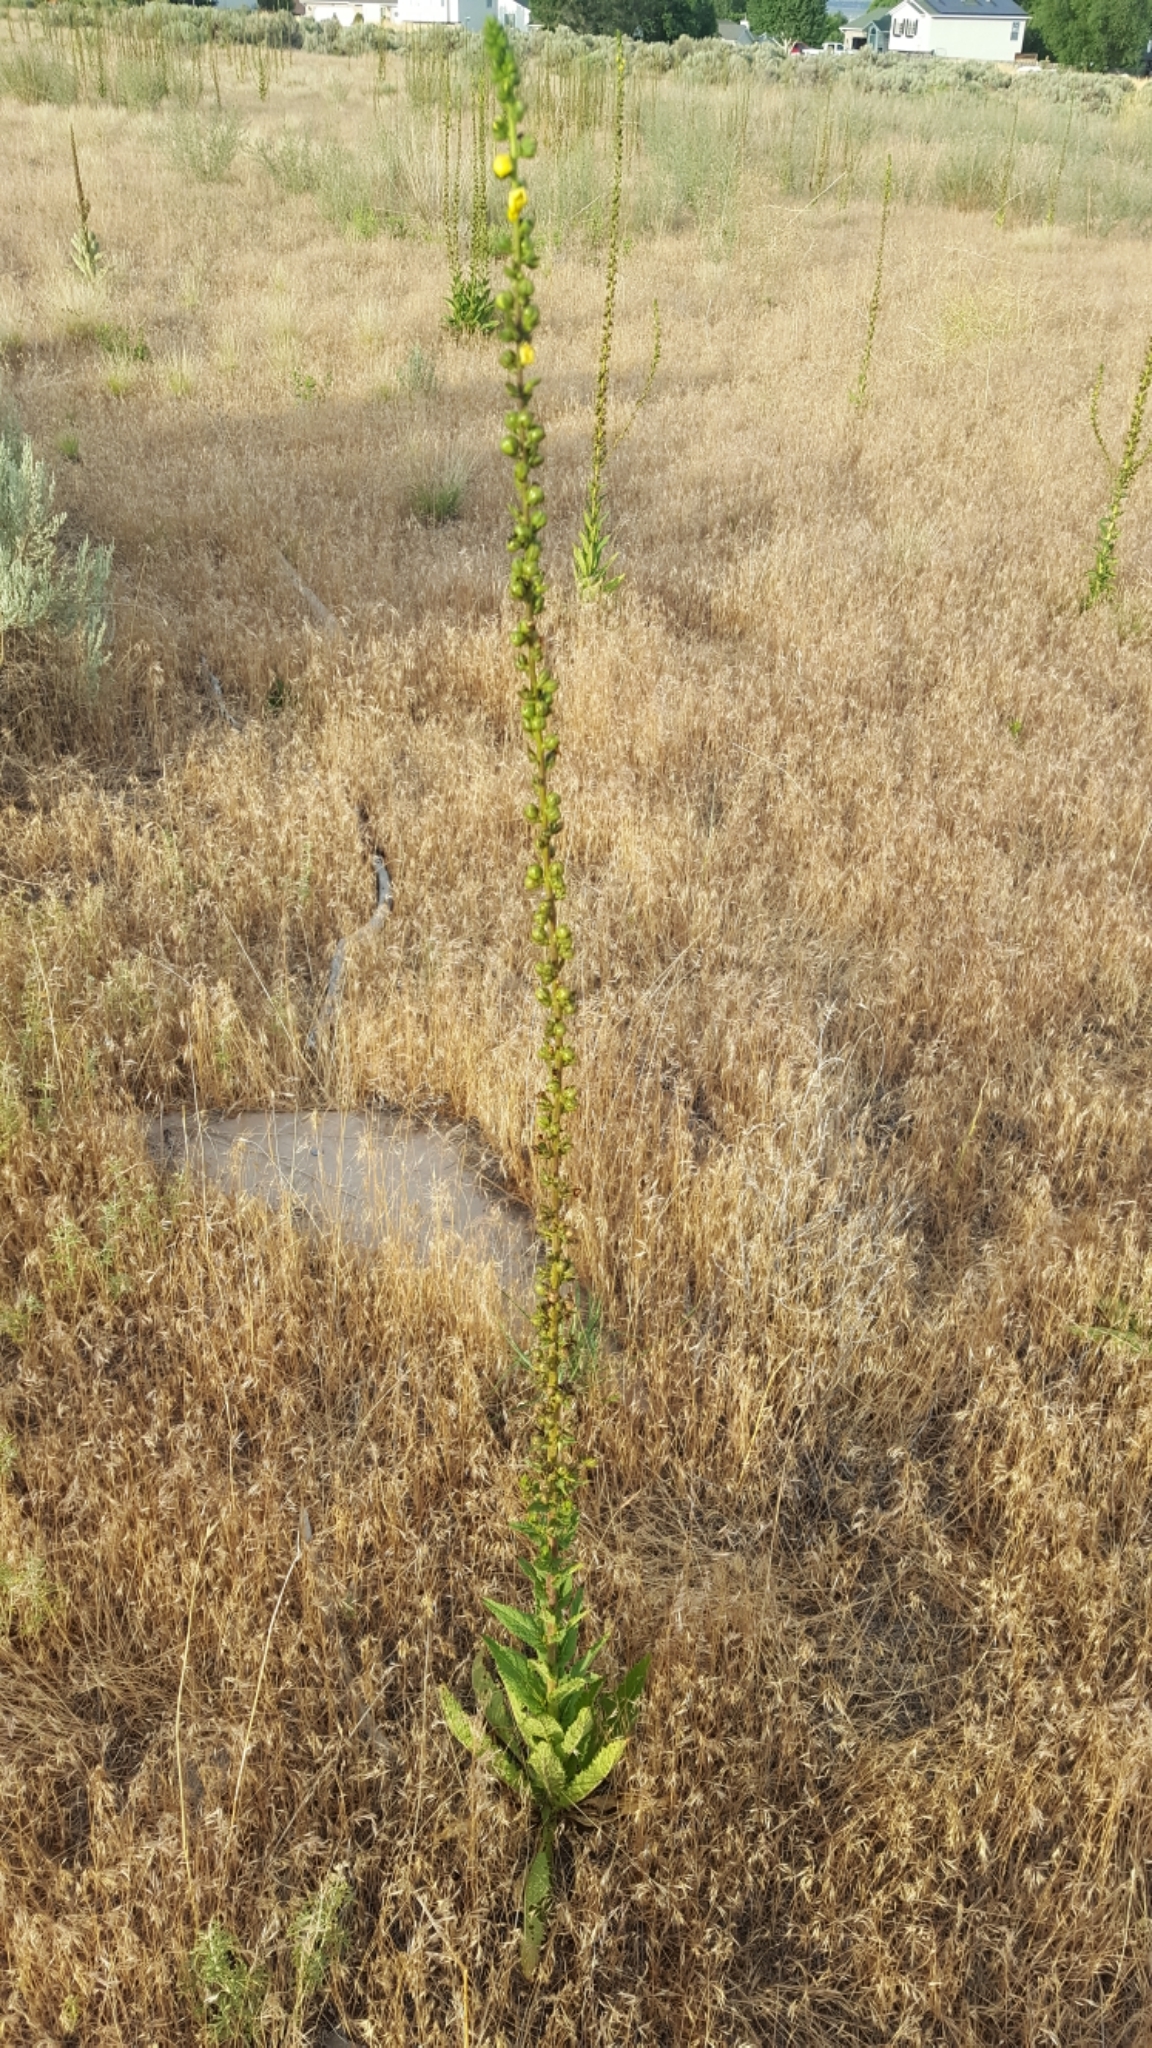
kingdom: Plantae
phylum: Tracheophyta
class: Magnoliopsida
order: Lamiales
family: Scrophulariaceae
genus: Verbascum
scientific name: Verbascum virgatum
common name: Twiggy mullein
